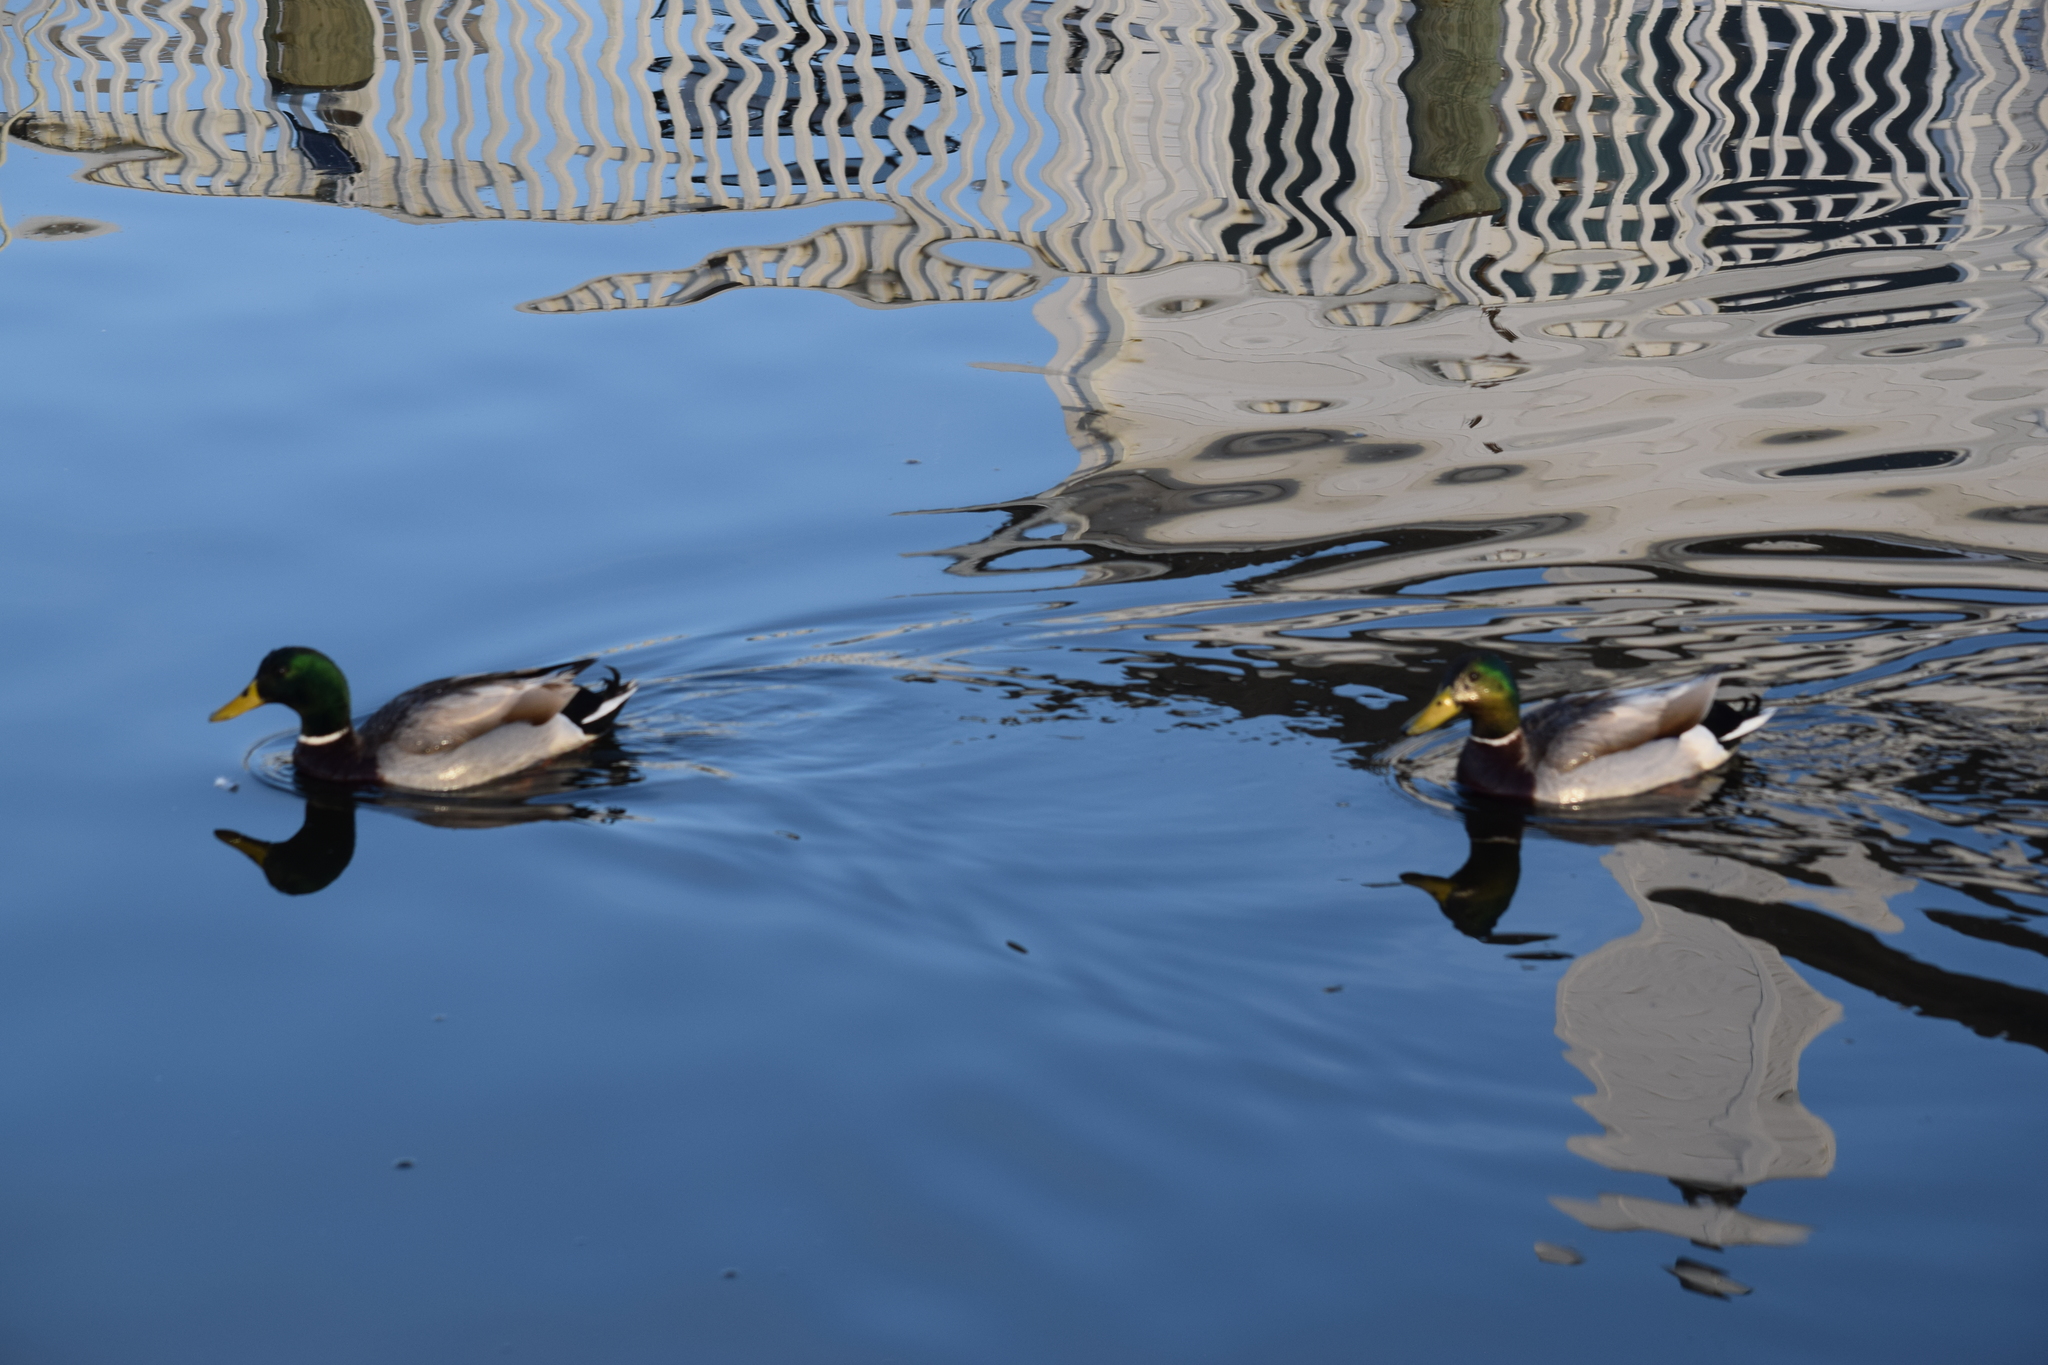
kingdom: Animalia
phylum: Chordata
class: Aves
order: Anseriformes
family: Anatidae
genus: Anas
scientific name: Anas platyrhynchos
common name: Mallard
